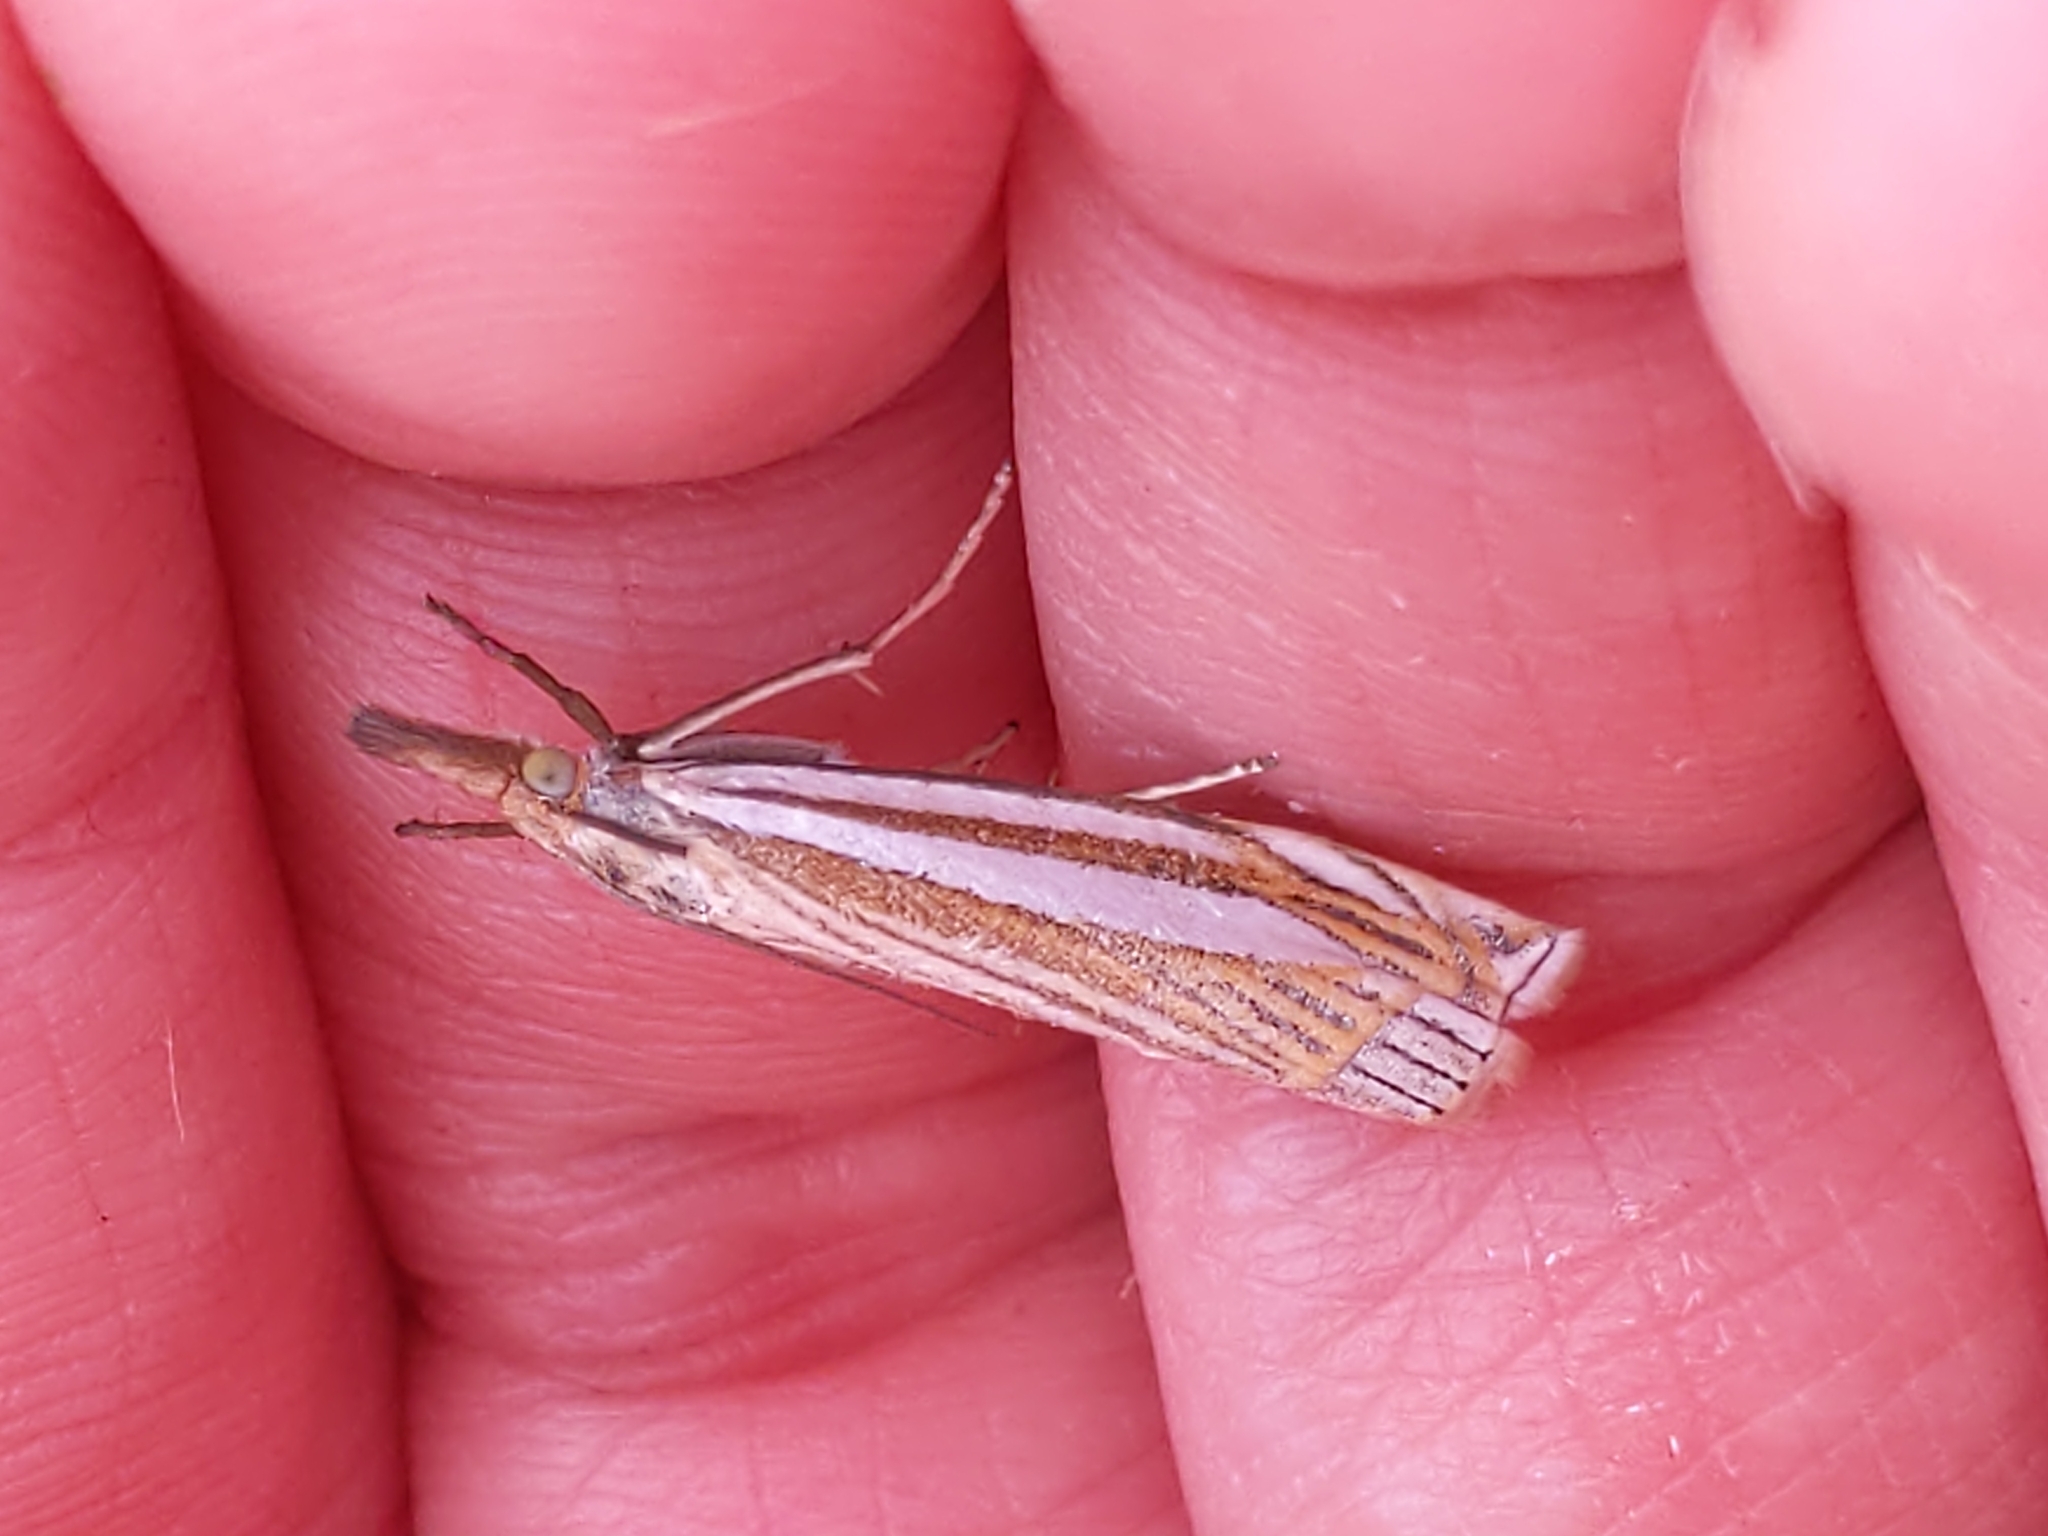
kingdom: Animalia
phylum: Arthropoda
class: Insecta
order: Lepidoptera
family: Crambidae
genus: Crambus
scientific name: Crambus laqueatellus
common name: Eastern grass-veneer
